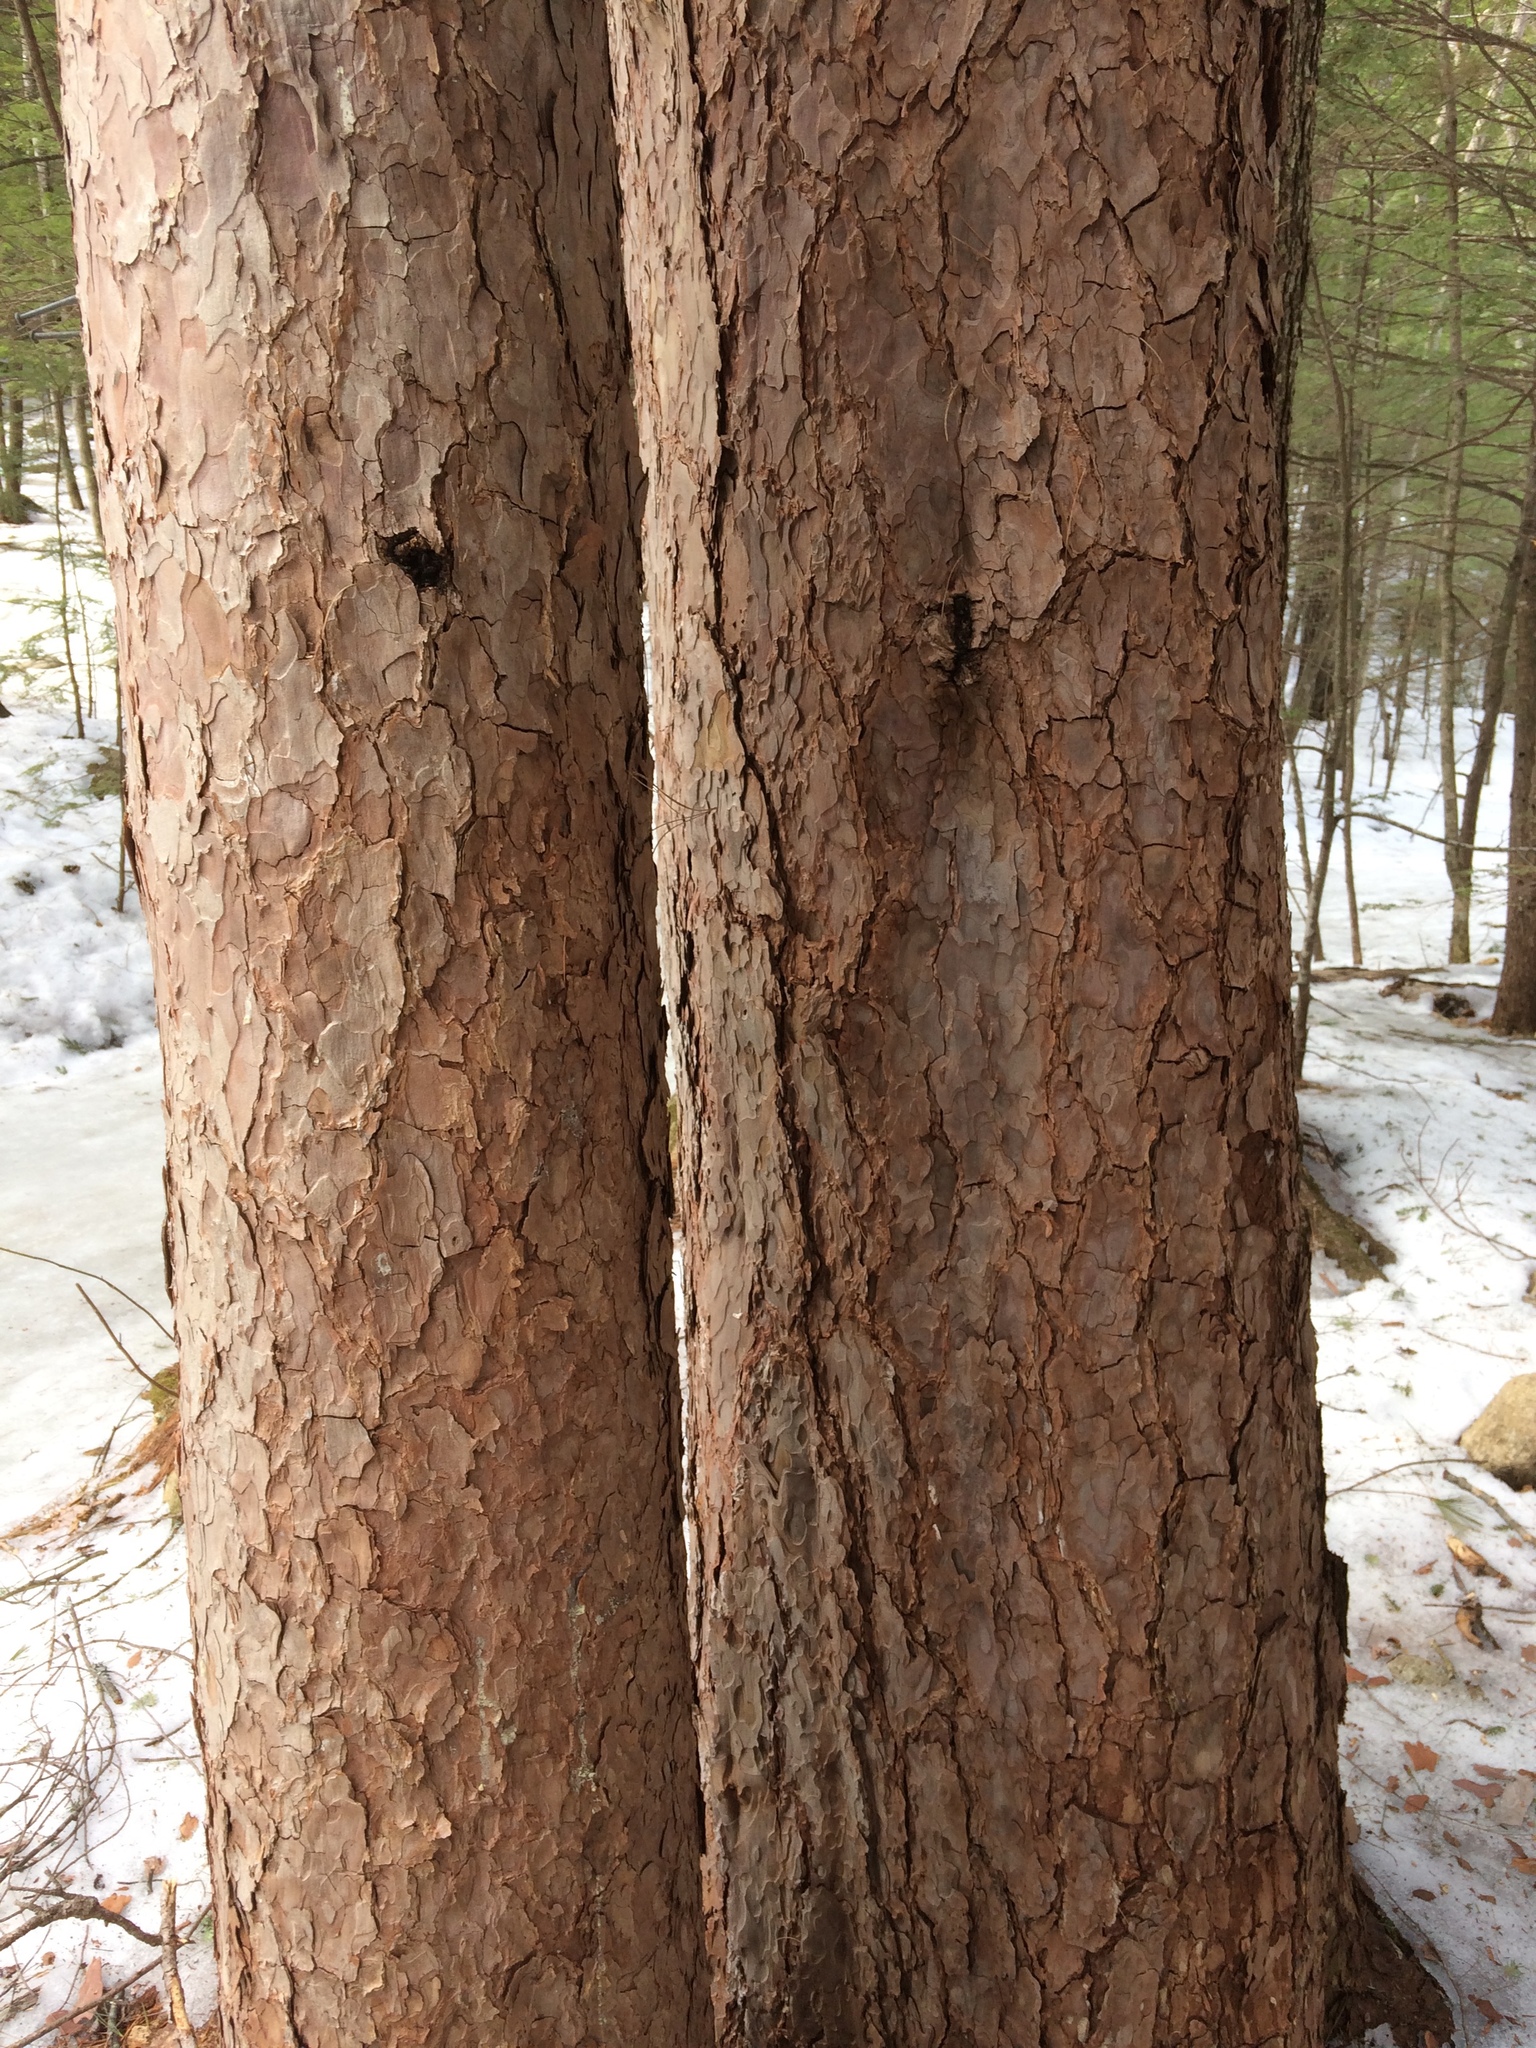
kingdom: Plantae
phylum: Tracheophyta
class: Pinopsida
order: Pinales
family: Pinaceae
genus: Pinus
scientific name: Pinus resinosa
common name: Norway pine
